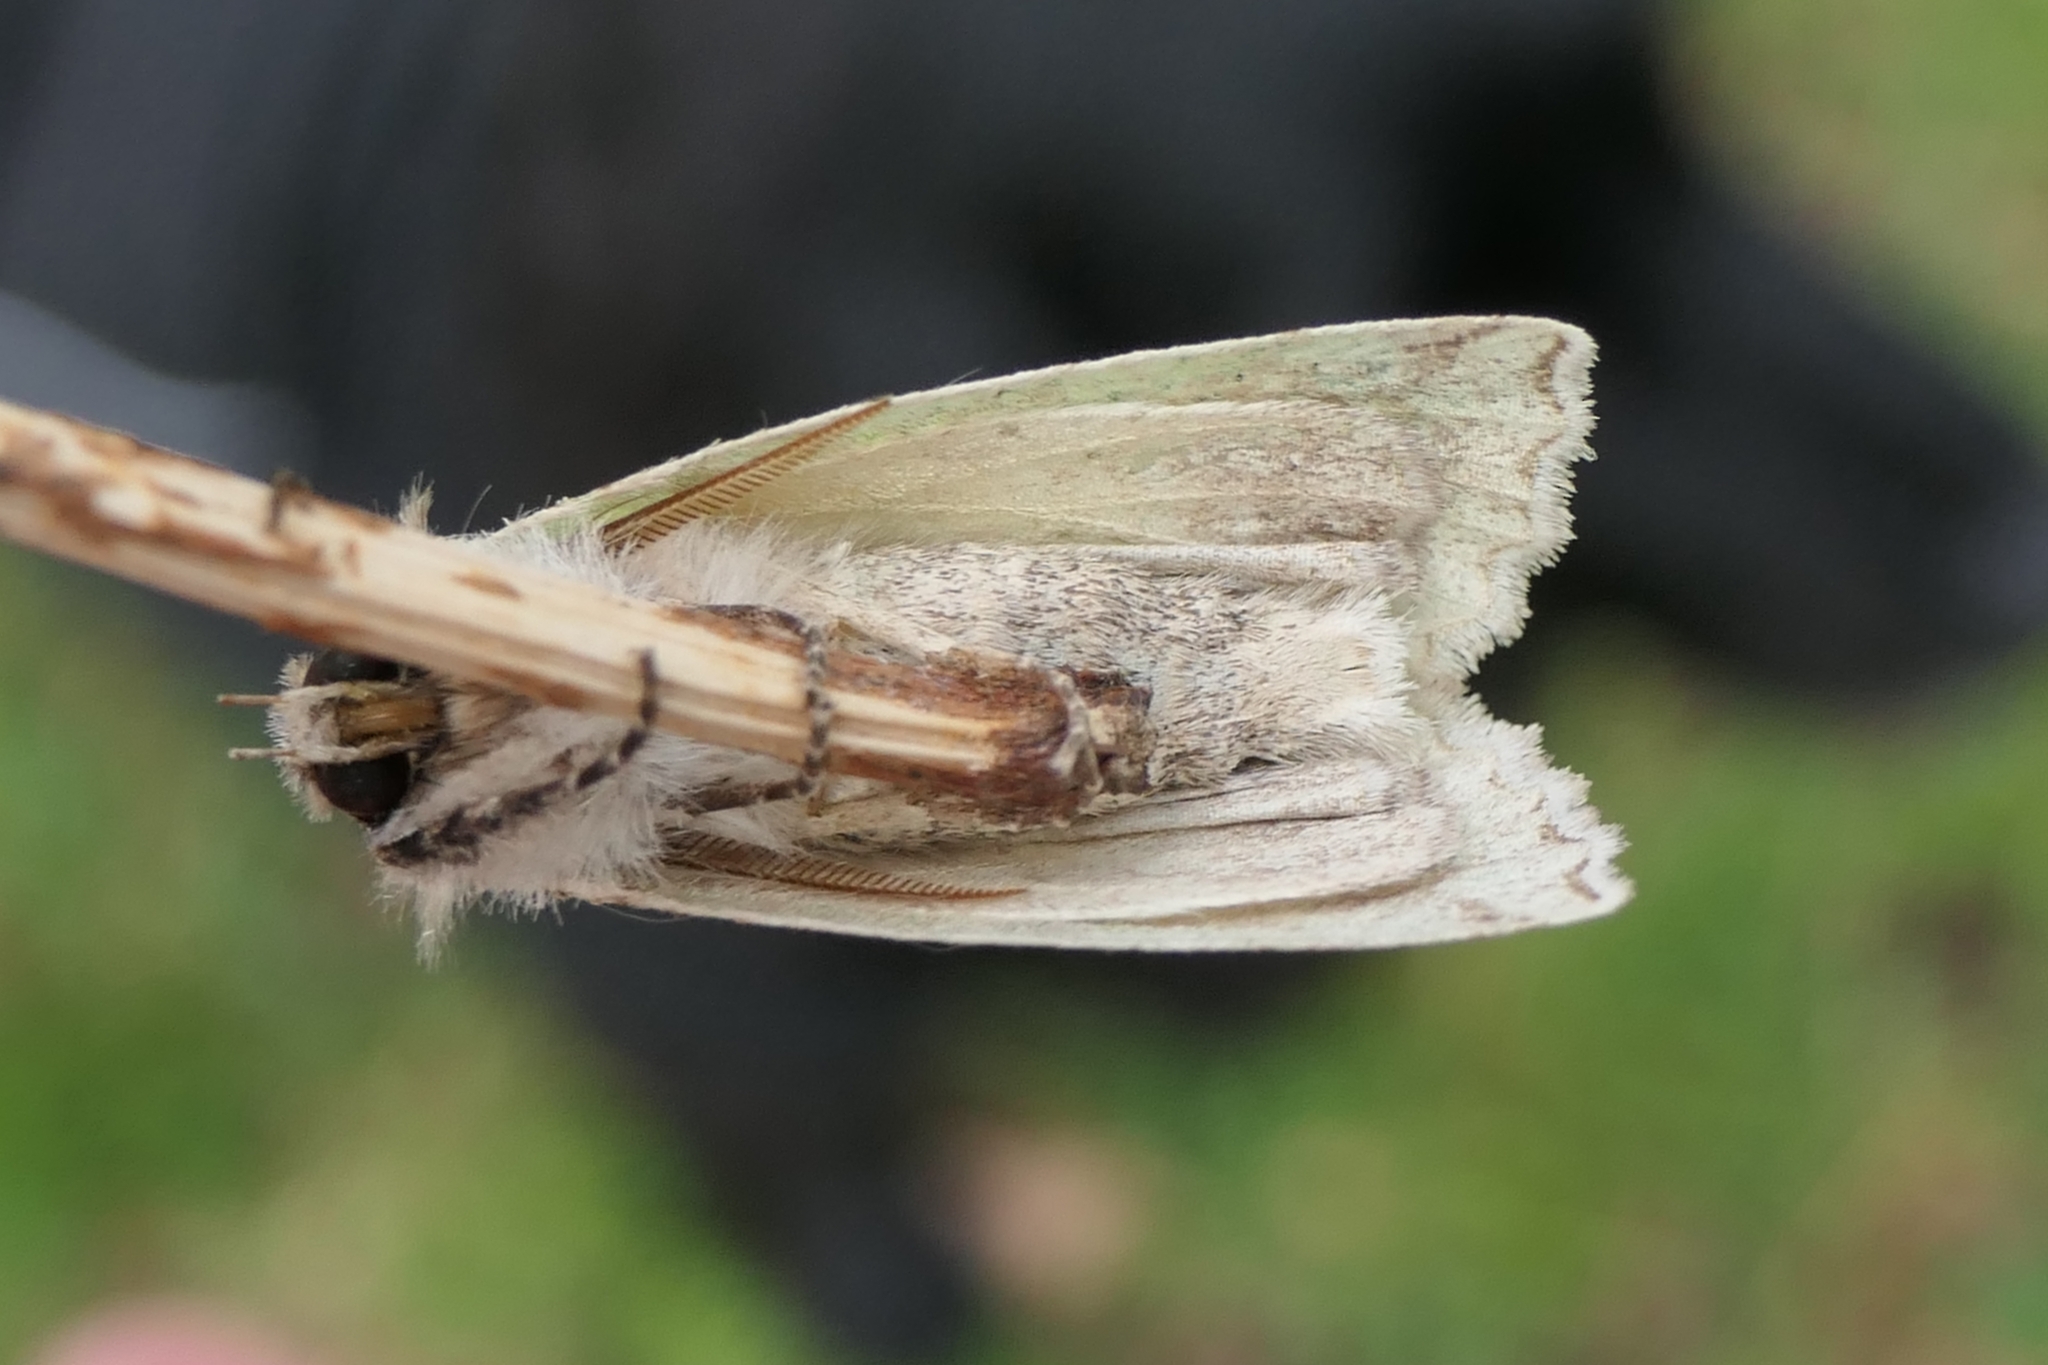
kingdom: Animalia
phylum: Arthropoda
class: Insecta
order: Lepidoptera
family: Geometridae
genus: Declana
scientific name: Declana floccosa
